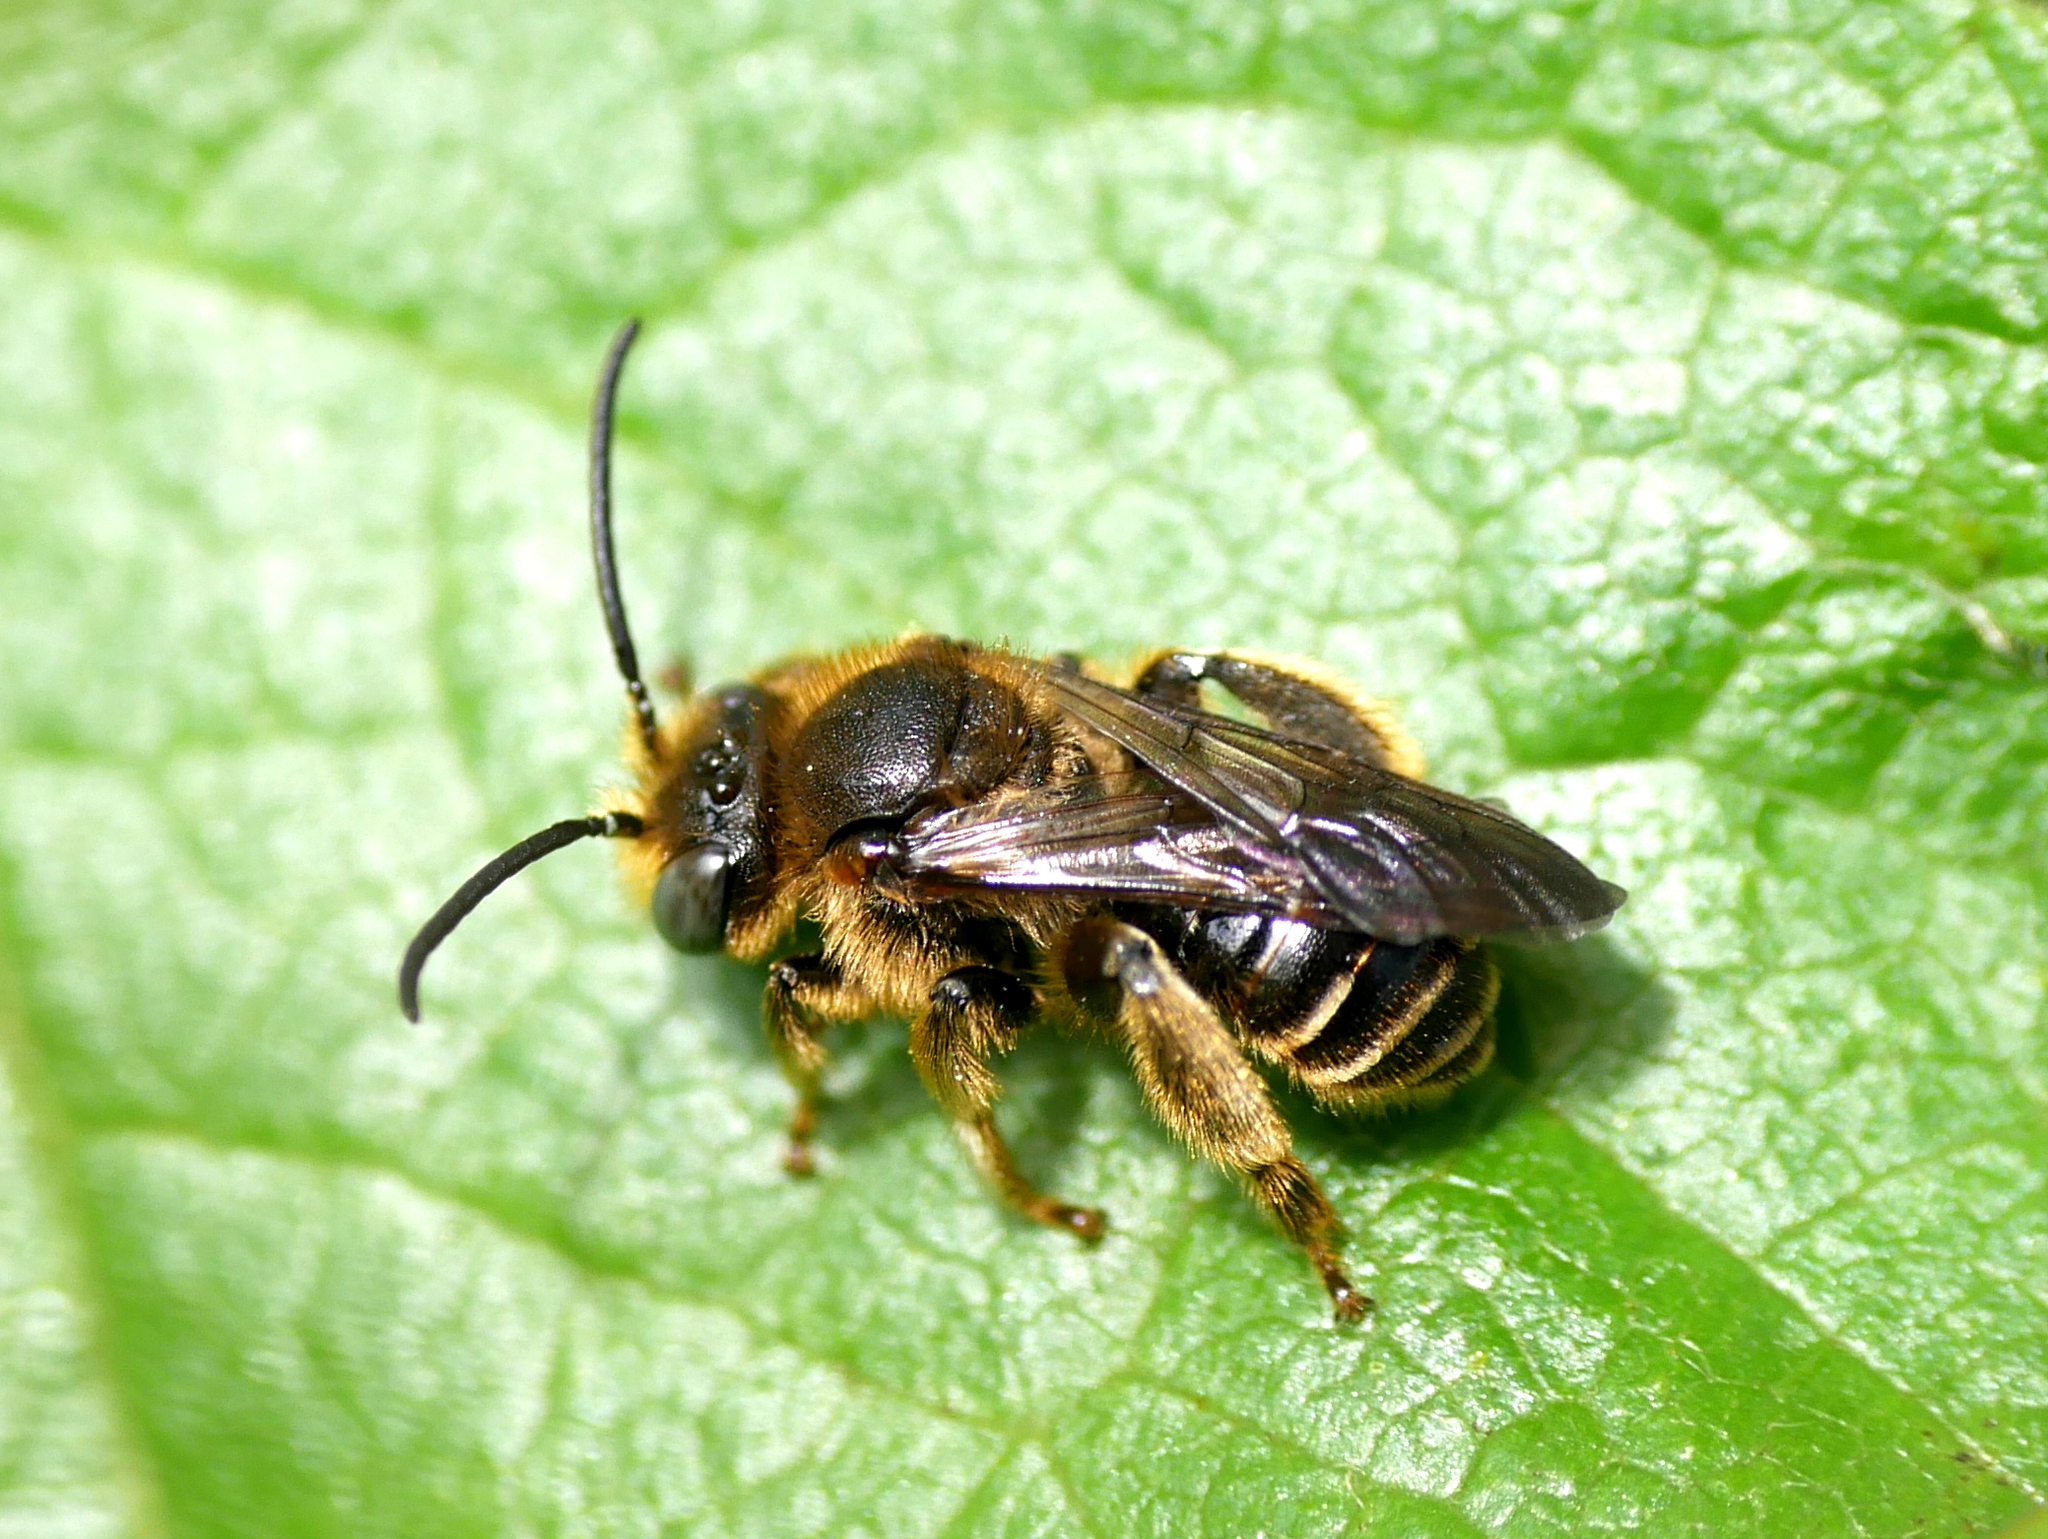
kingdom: Animalia
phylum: Arthropoda
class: Insecta
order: Hymenoptera
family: Melittidae
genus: Macropis
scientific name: Macropis europaea
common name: Yellow loosestrife bee
